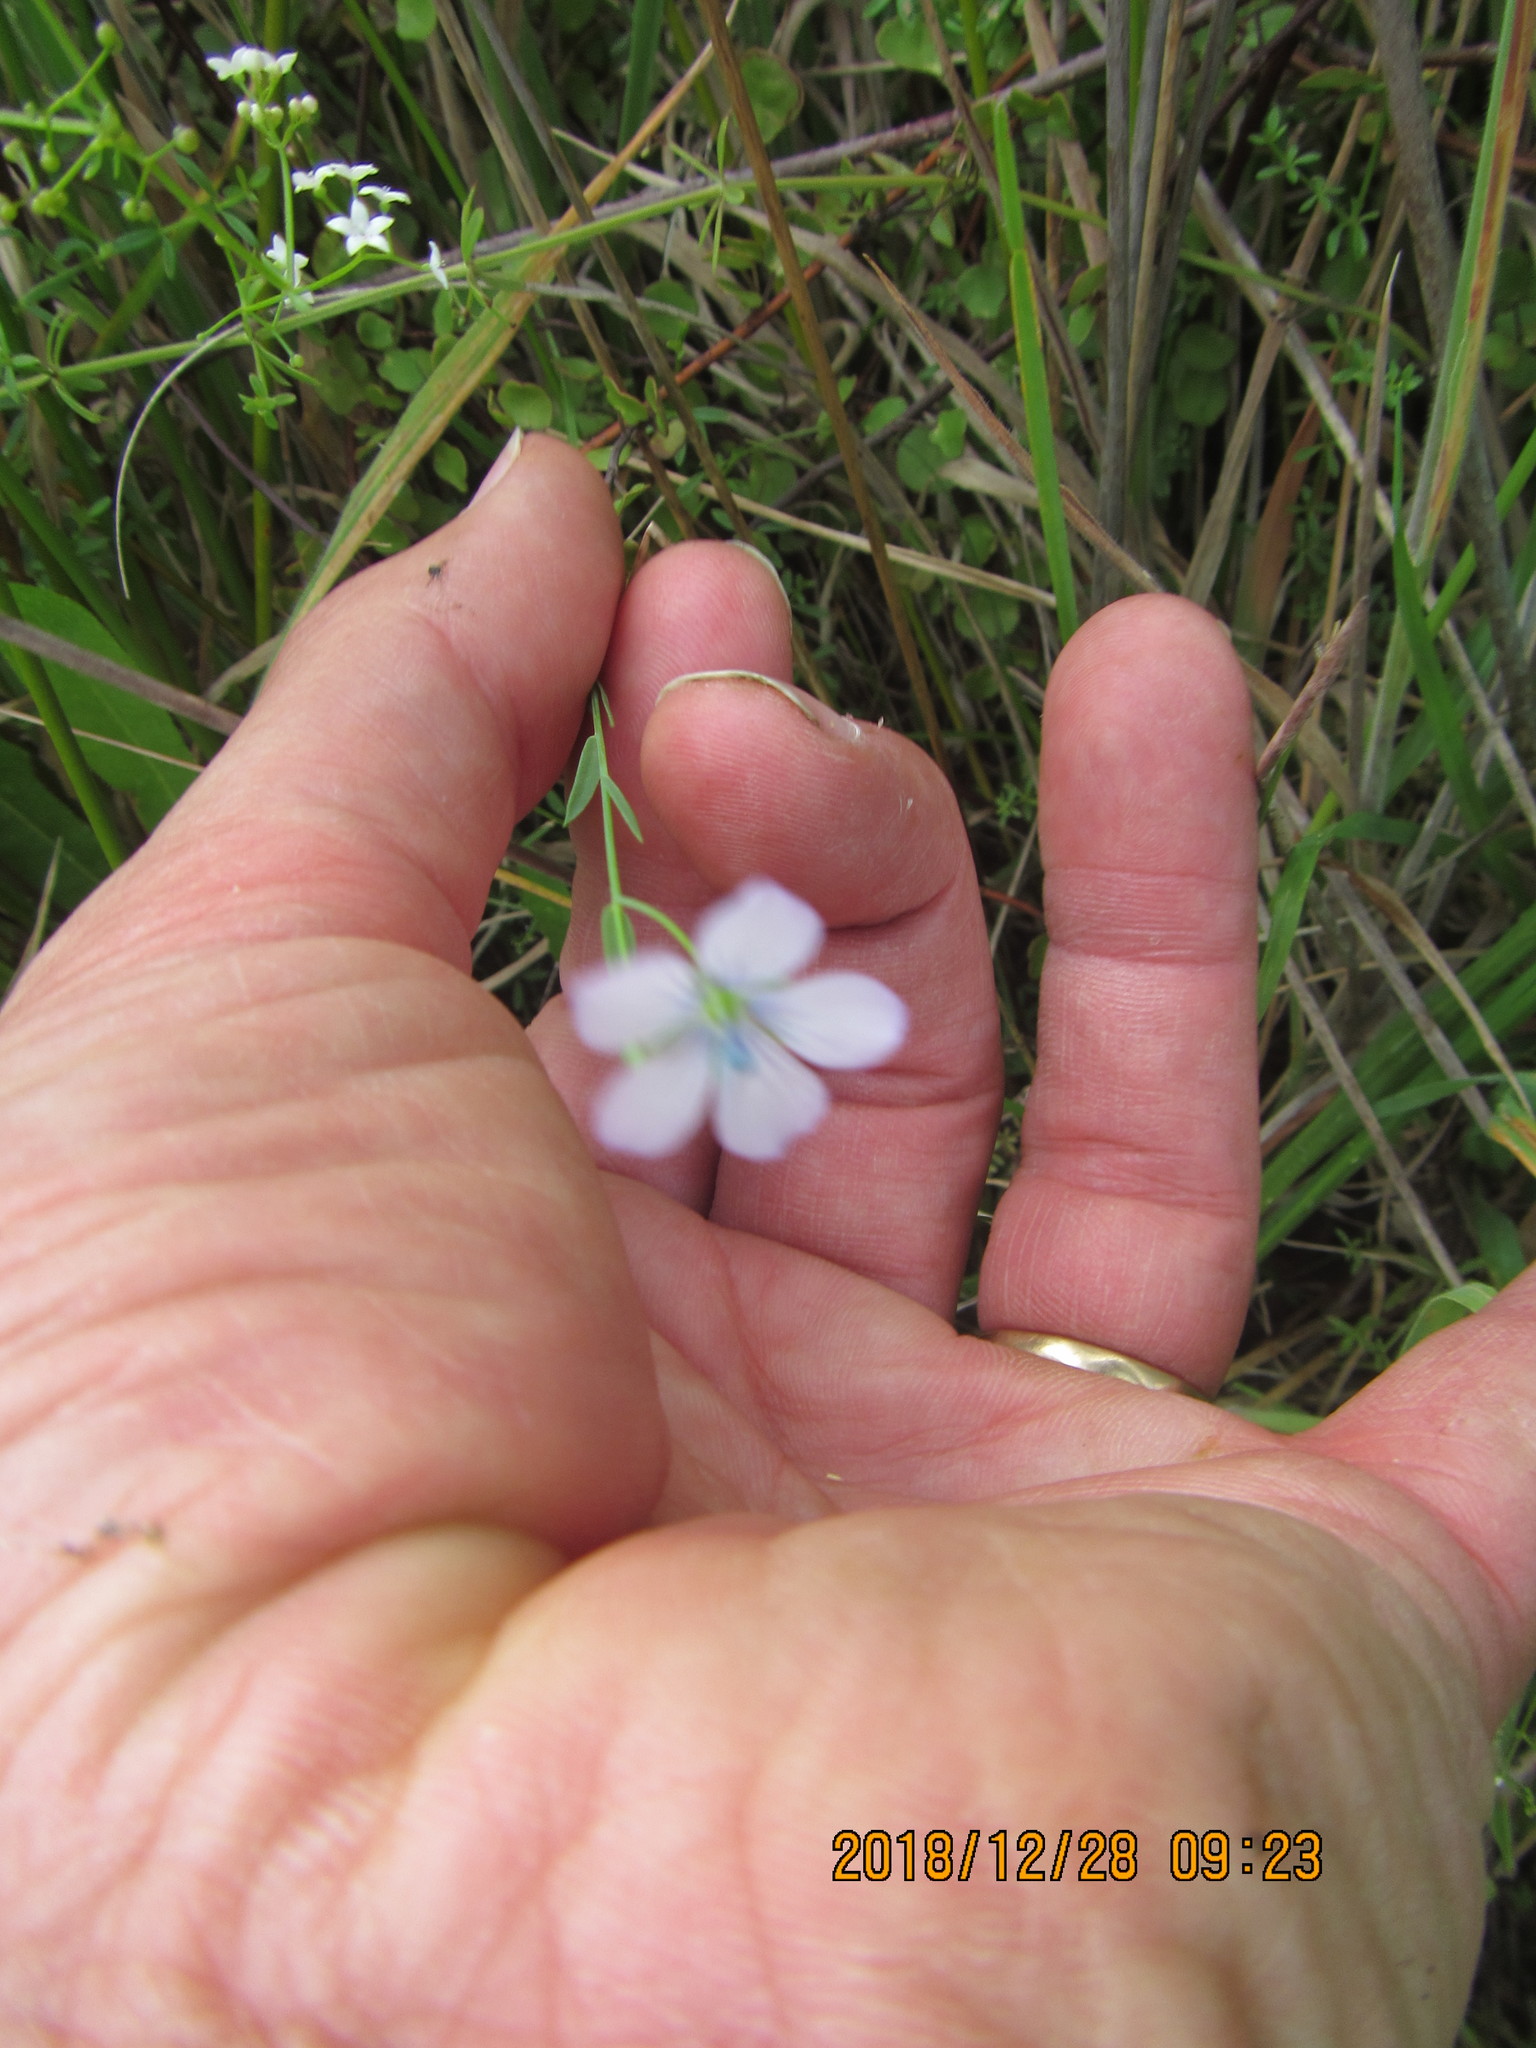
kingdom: Plantae
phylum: Tracheophyta
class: Magnoliopsida
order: Malpighiales
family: Linaceae
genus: Linum
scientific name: Linum bienne
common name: Pale flax
